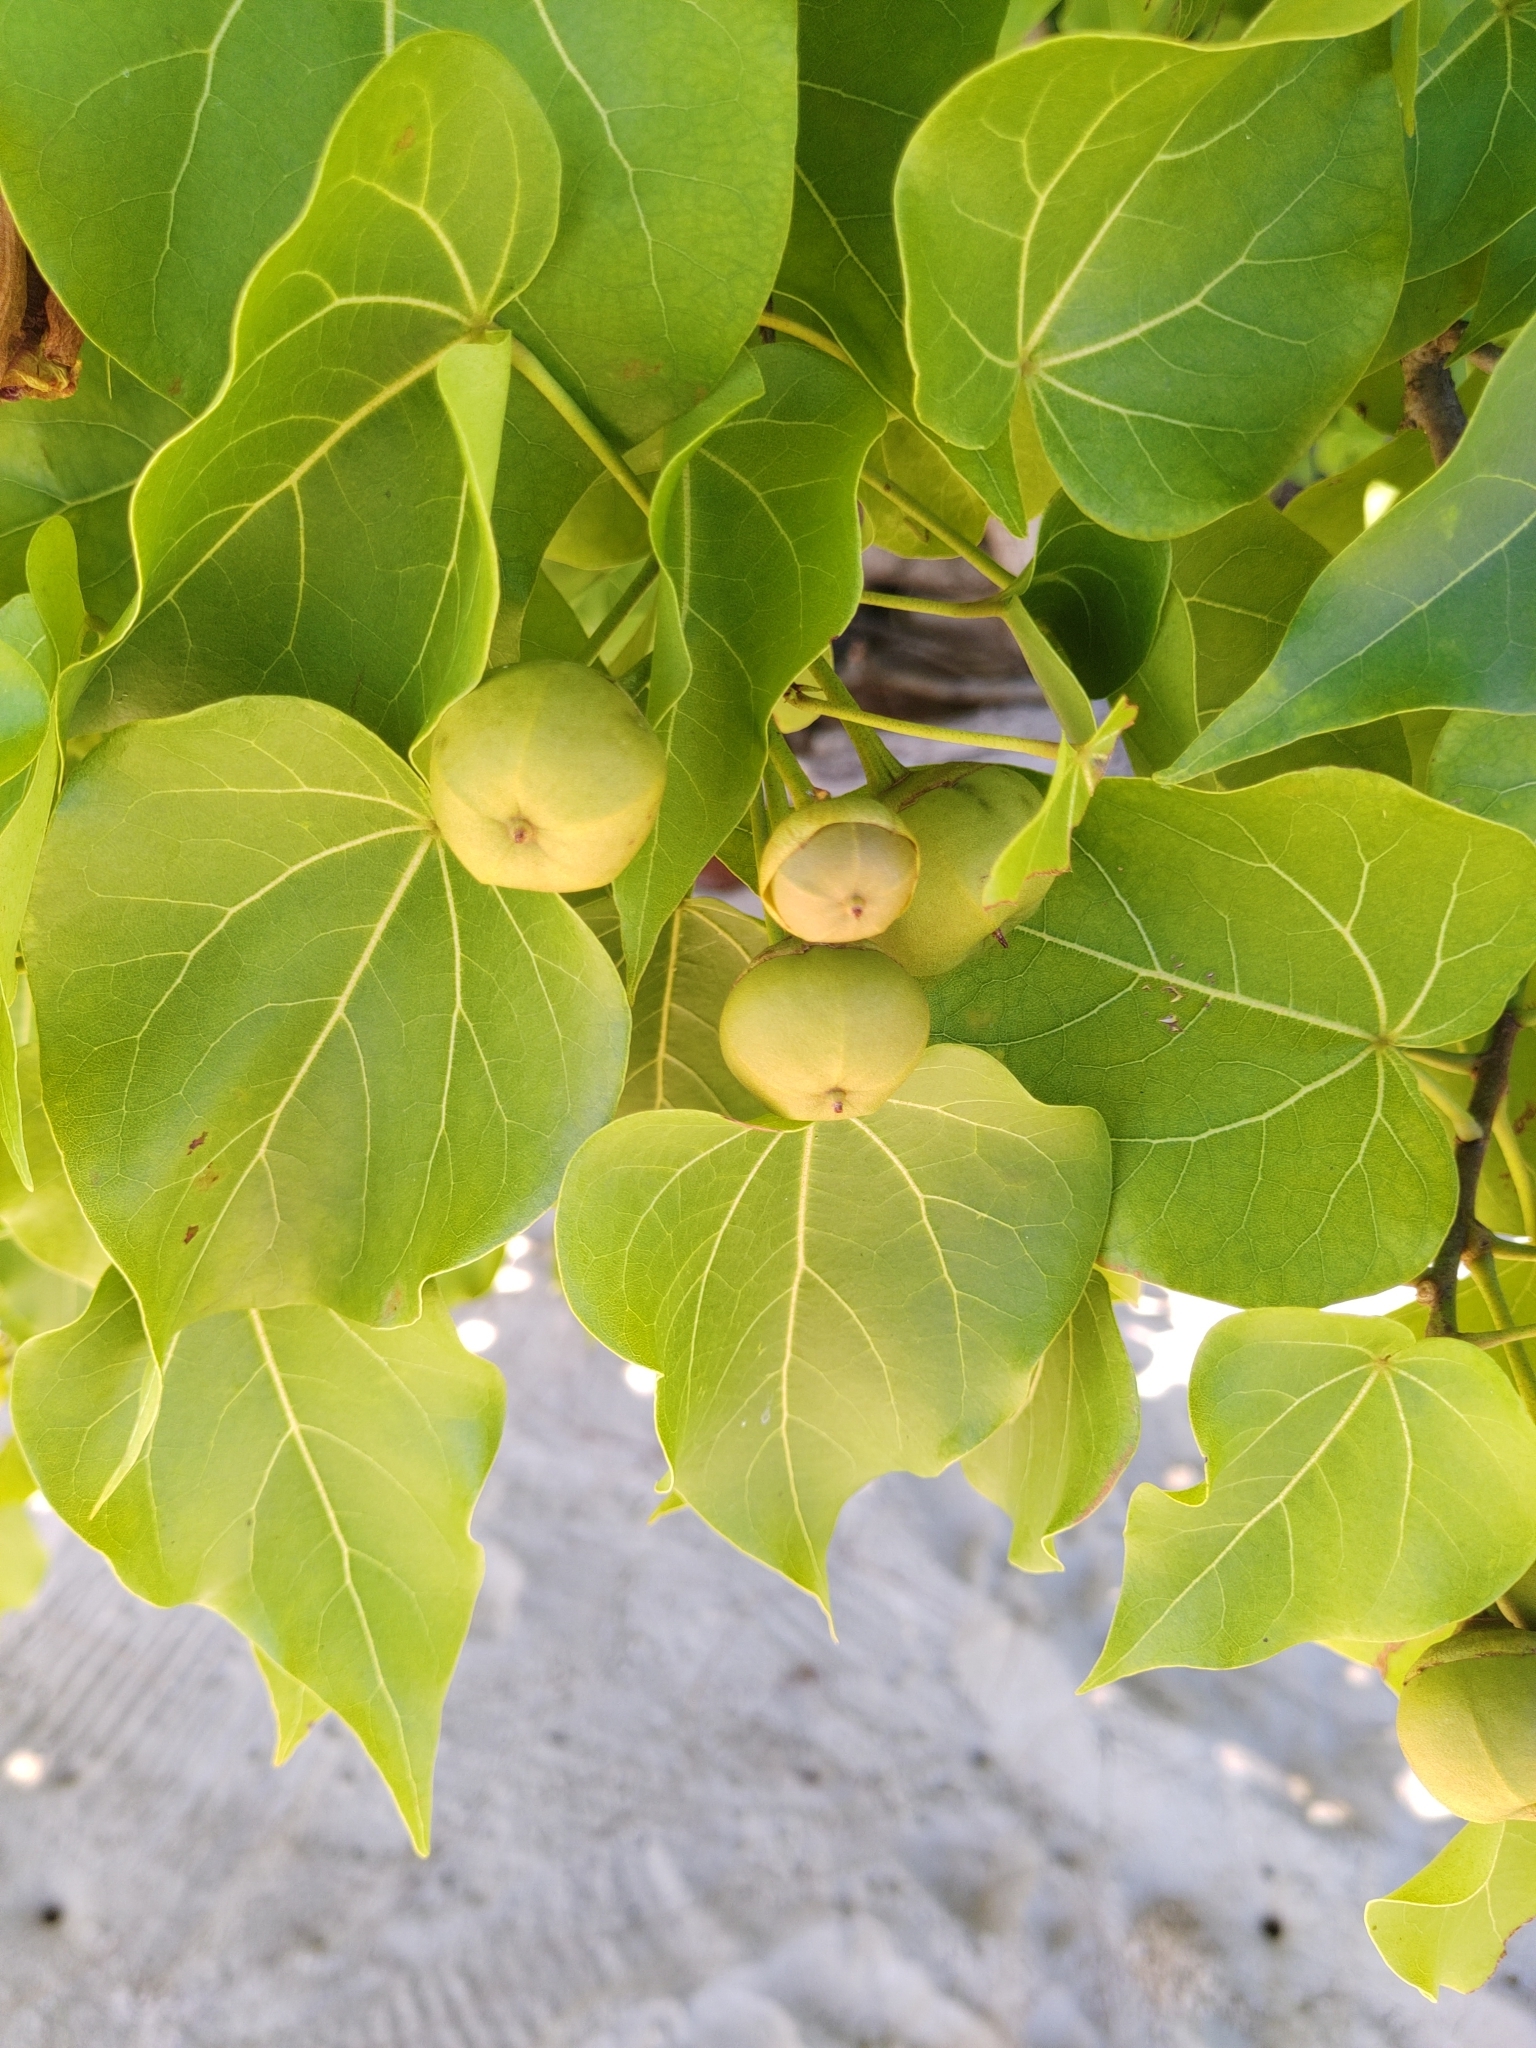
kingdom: Plantae
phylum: Tracheophyta
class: Magnoliopsida
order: Malvales
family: Malvaceae
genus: Thespesia
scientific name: Thespesia populnea
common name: Seaside mahoe
